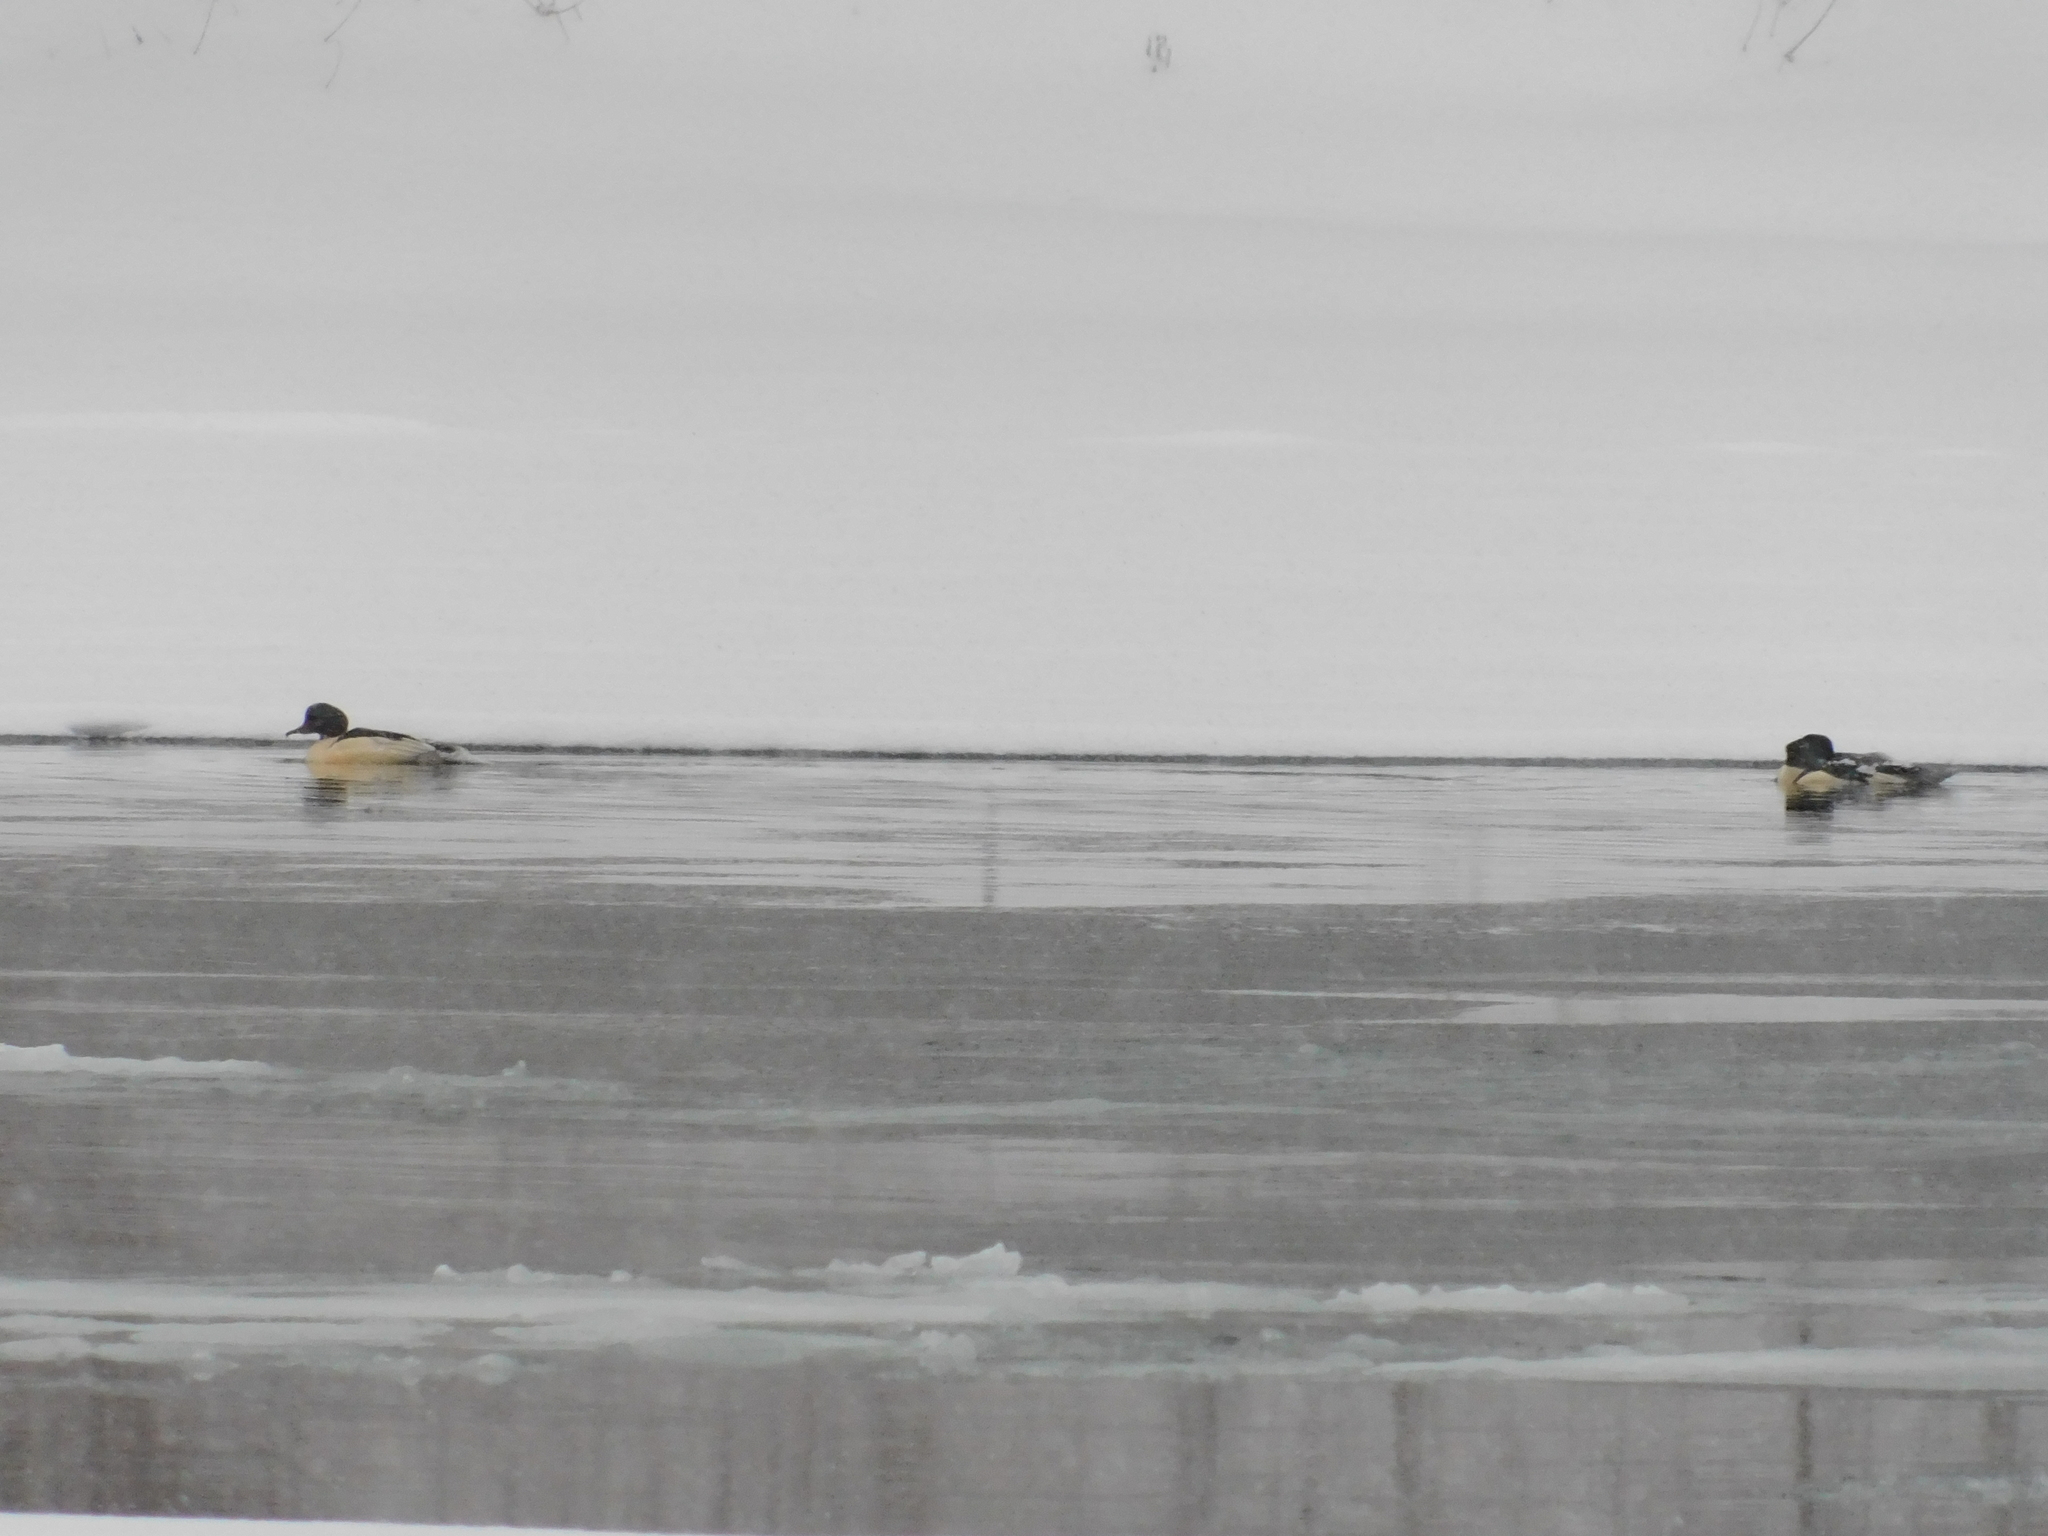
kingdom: Animalia
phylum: Chordata
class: Aves
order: Anseriformes
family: Anatidae
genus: Mergus
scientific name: Mergus merganser
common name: Common merganser
